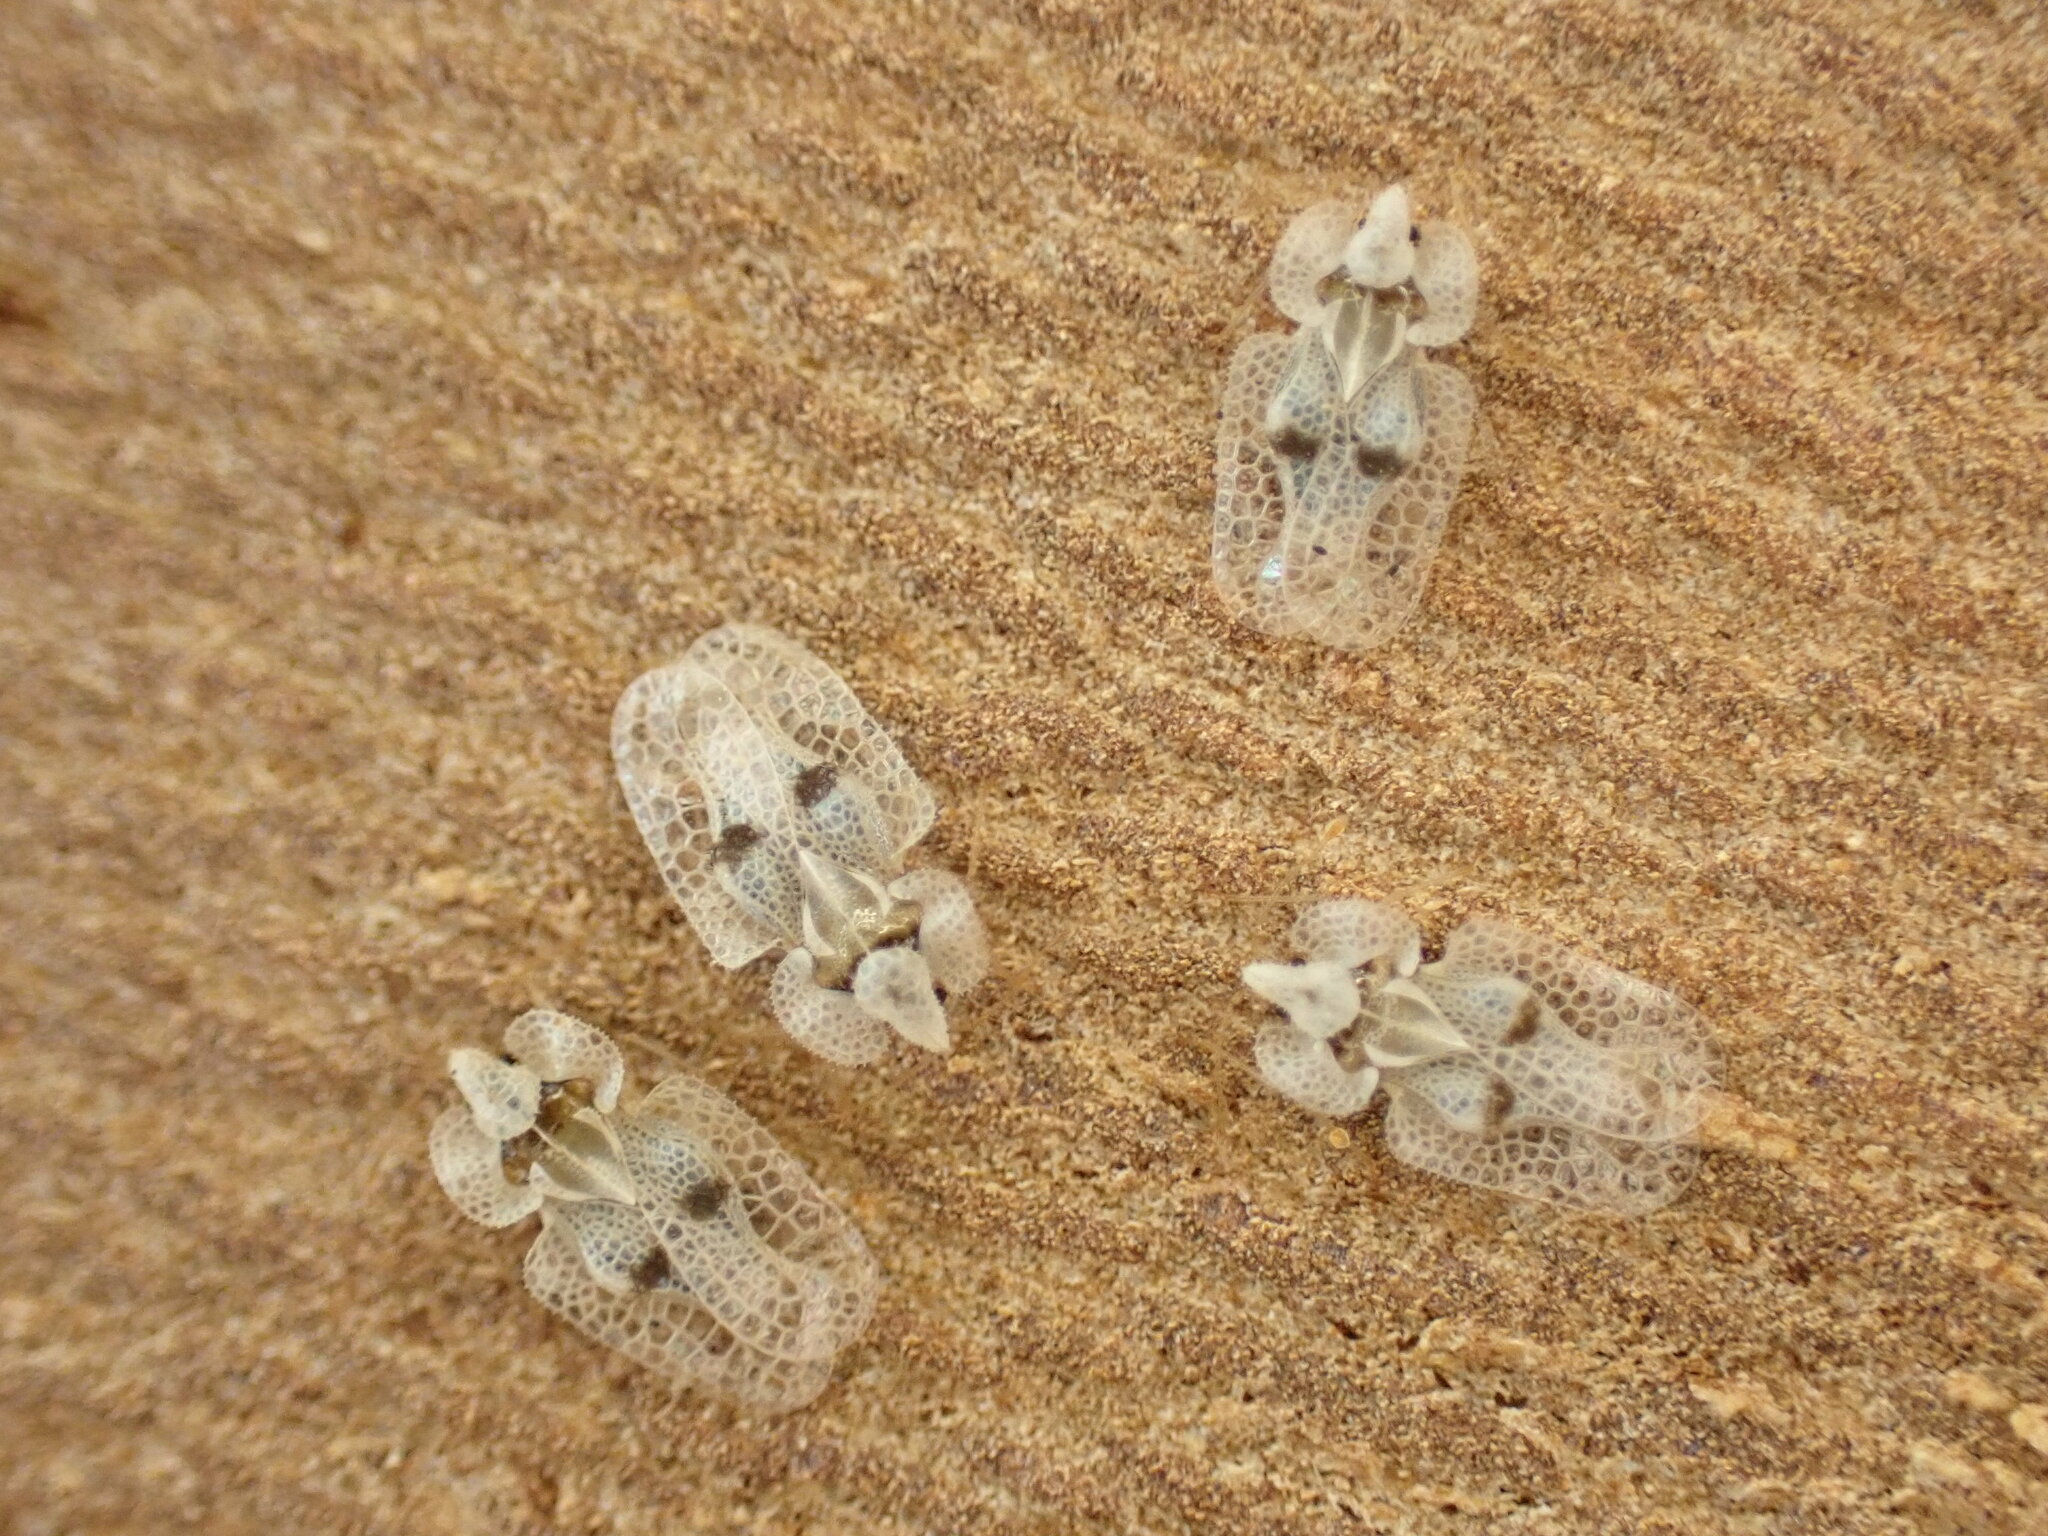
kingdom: Animalia
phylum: Arthropoda
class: Insecta
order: Hemiptera
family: Tingidae
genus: Corythucha
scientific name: Corythucha ciliata
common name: Sycamore lace bug
